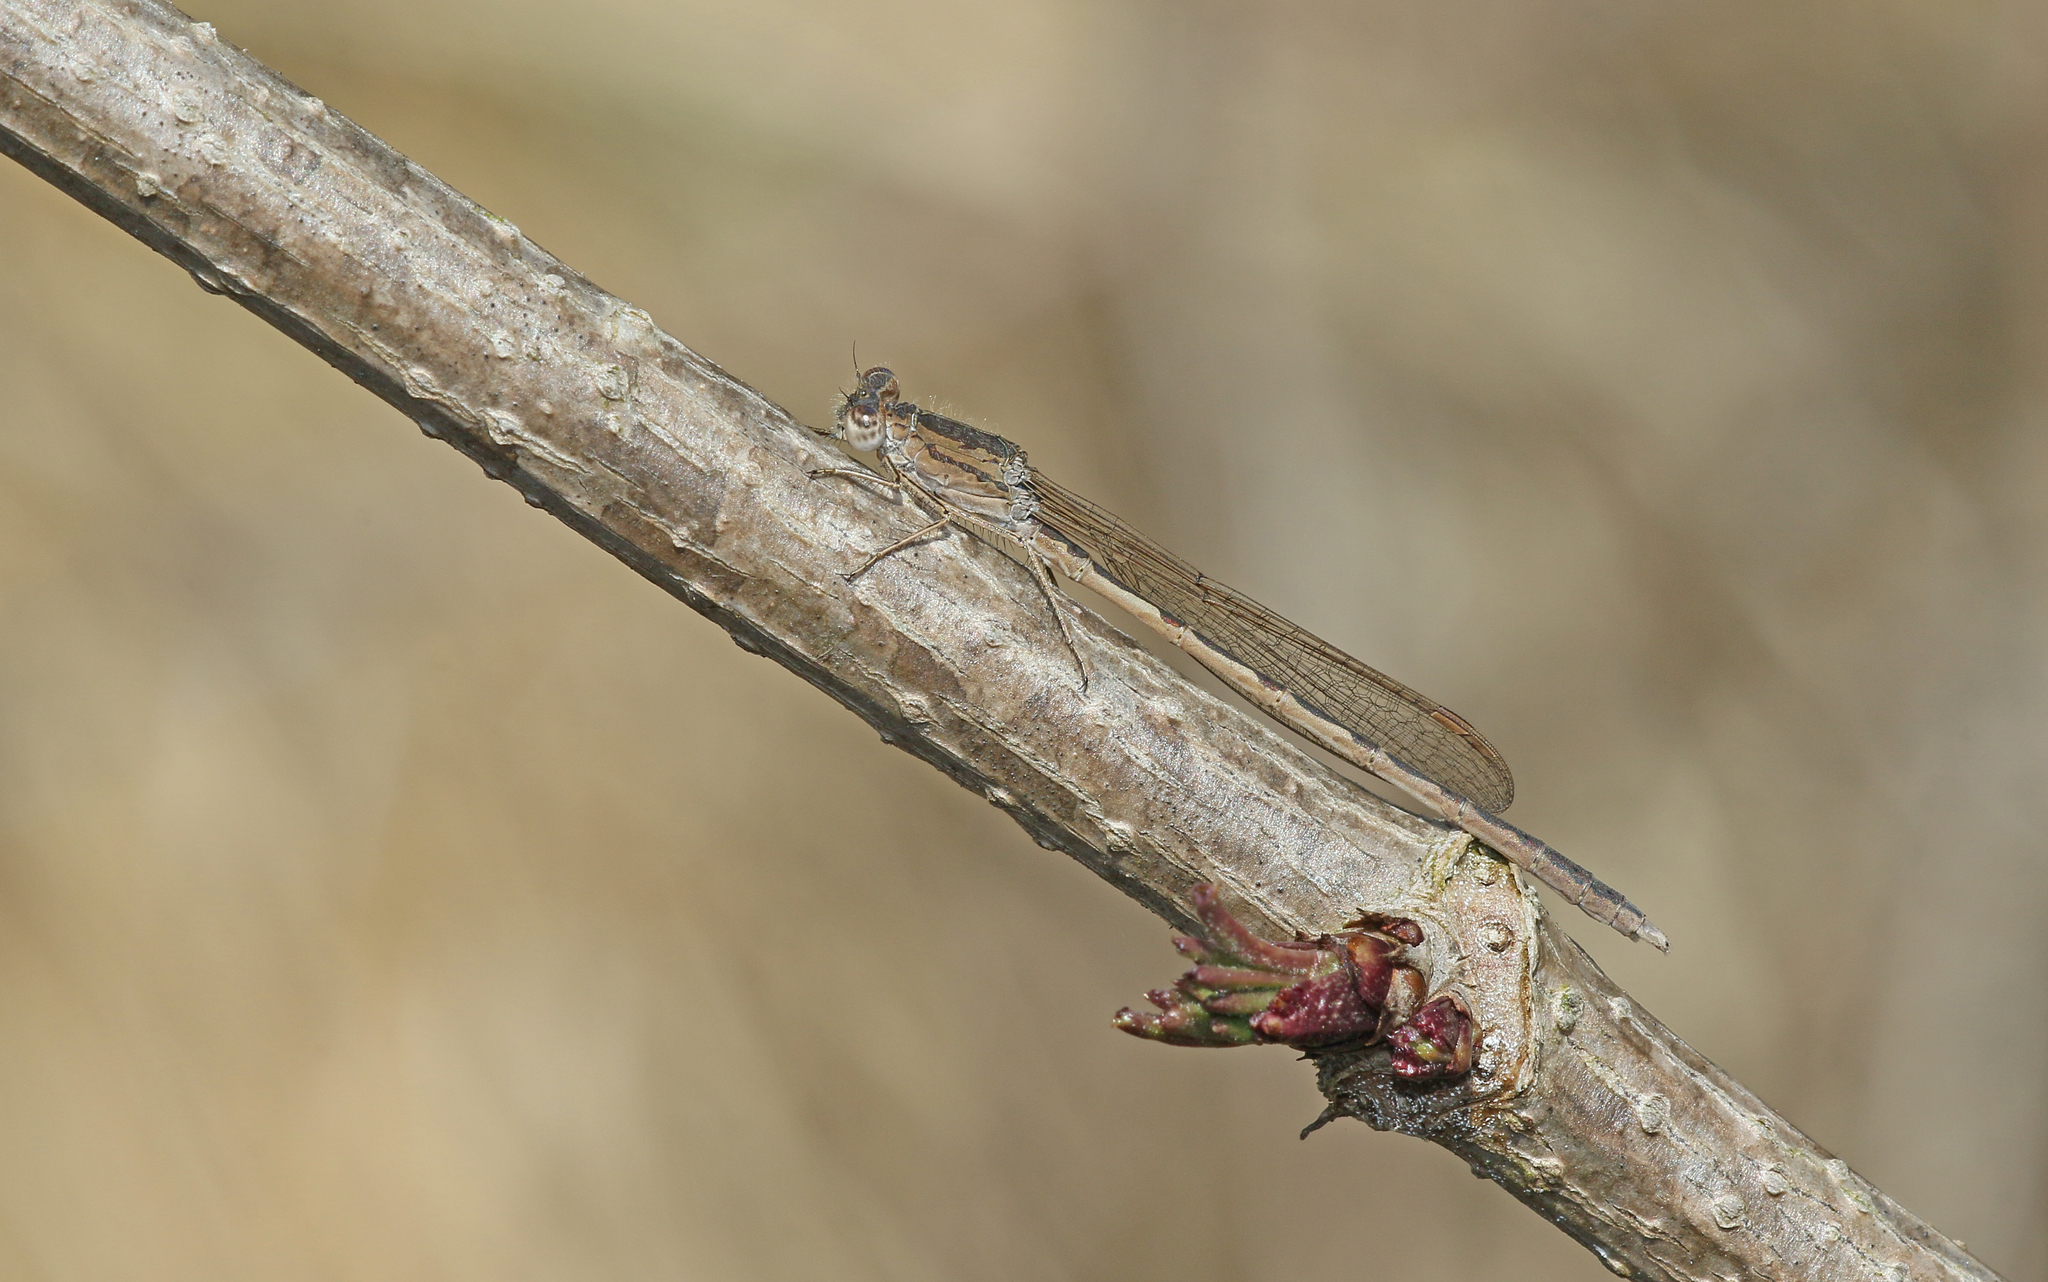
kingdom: Animalia
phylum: Arthropoda
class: Insecta
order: Odonata
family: Lestidae
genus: Sympecma
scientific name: Sympecma paedisca
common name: Siberian winter damsel
